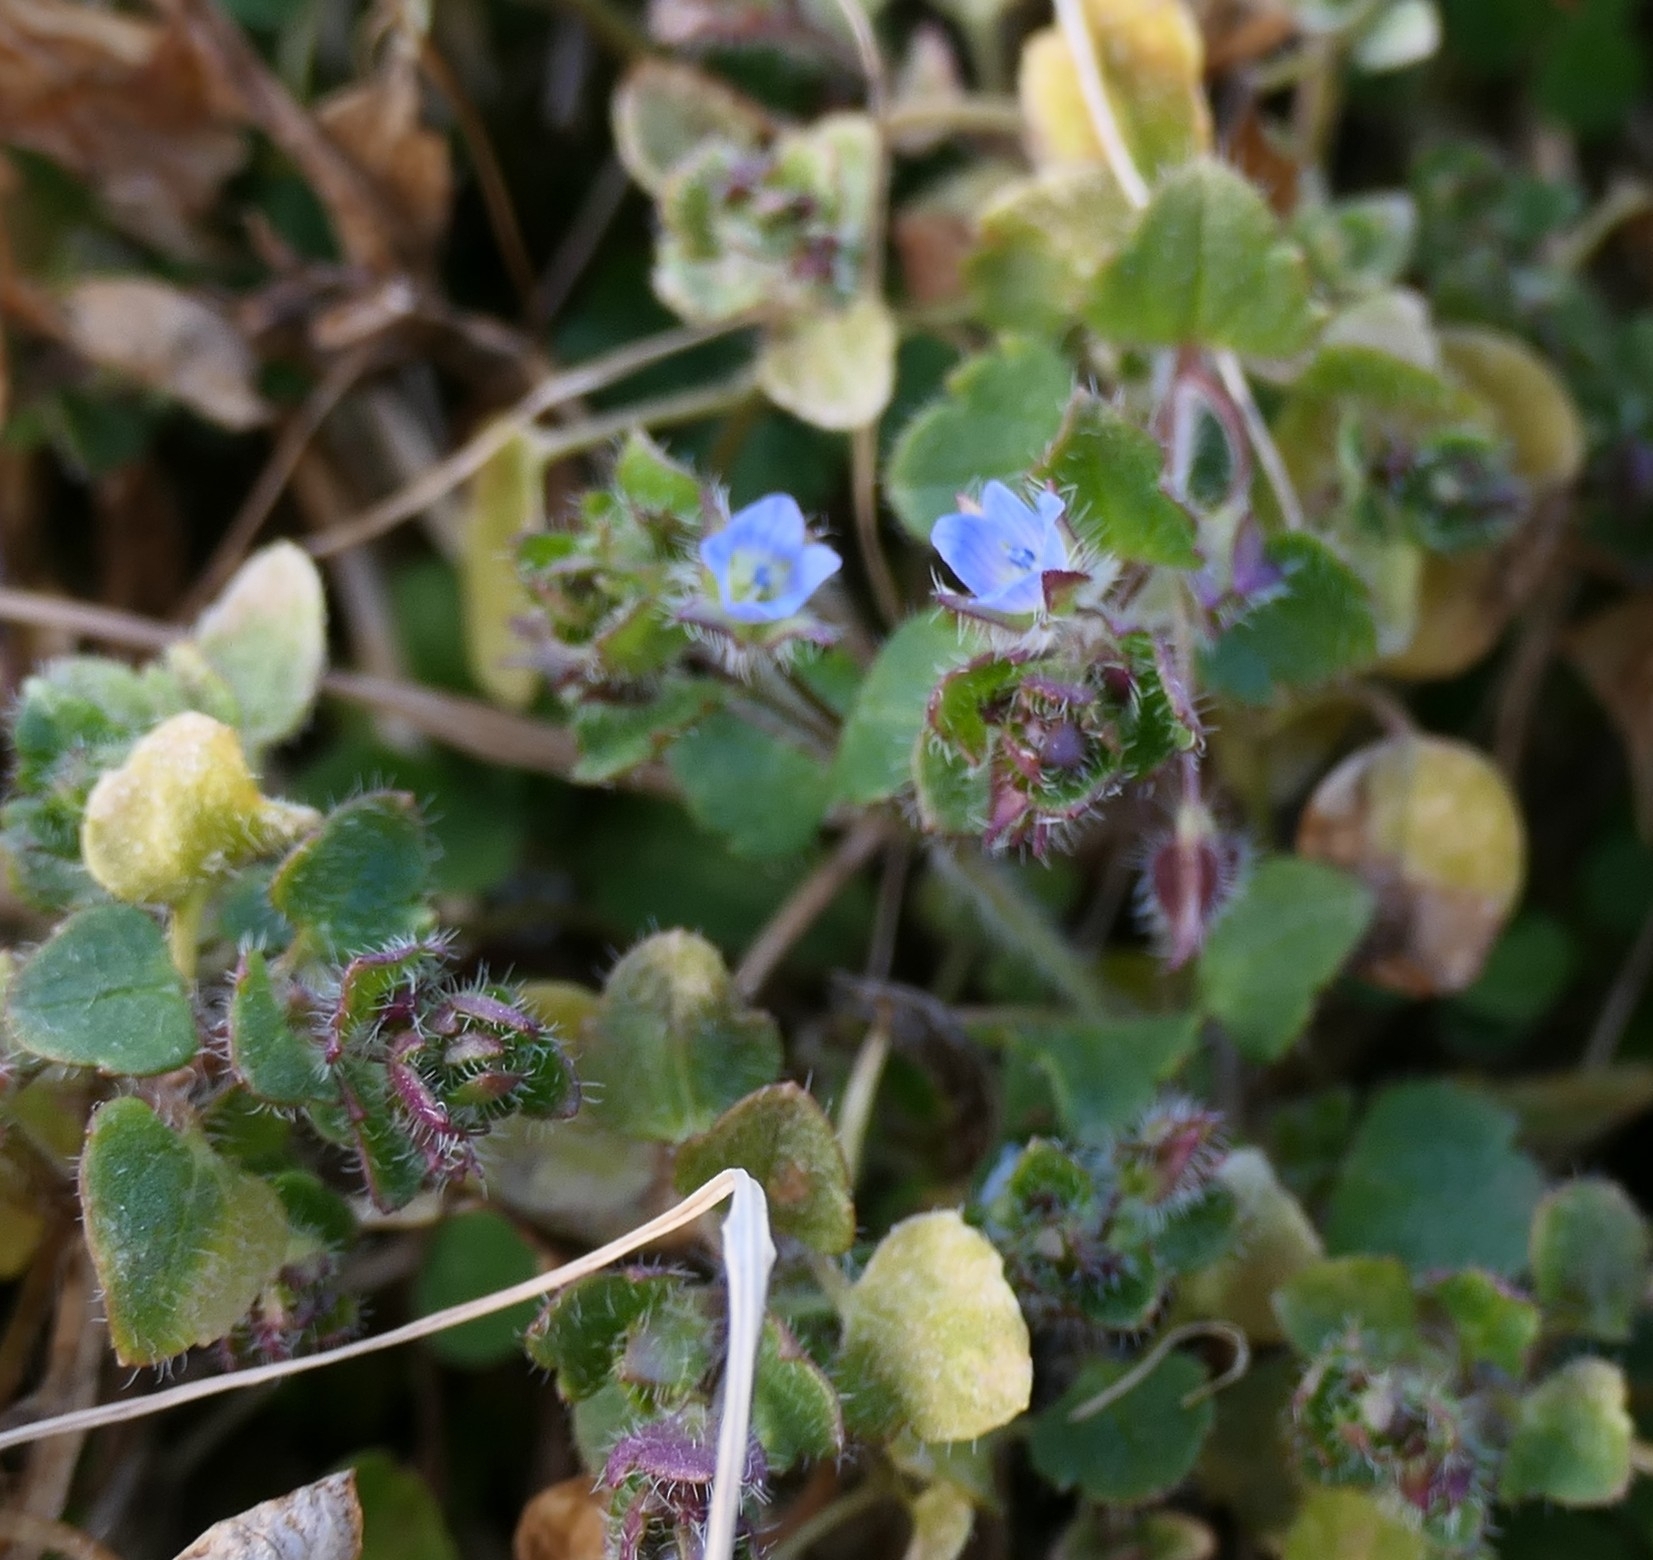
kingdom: Plantae
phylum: Tracheophyta
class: Magnoliopsida
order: Lamiales
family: Plantaginaceae
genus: Veronica
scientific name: Veronica hederifolia
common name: Ivy-leaved speedwell
